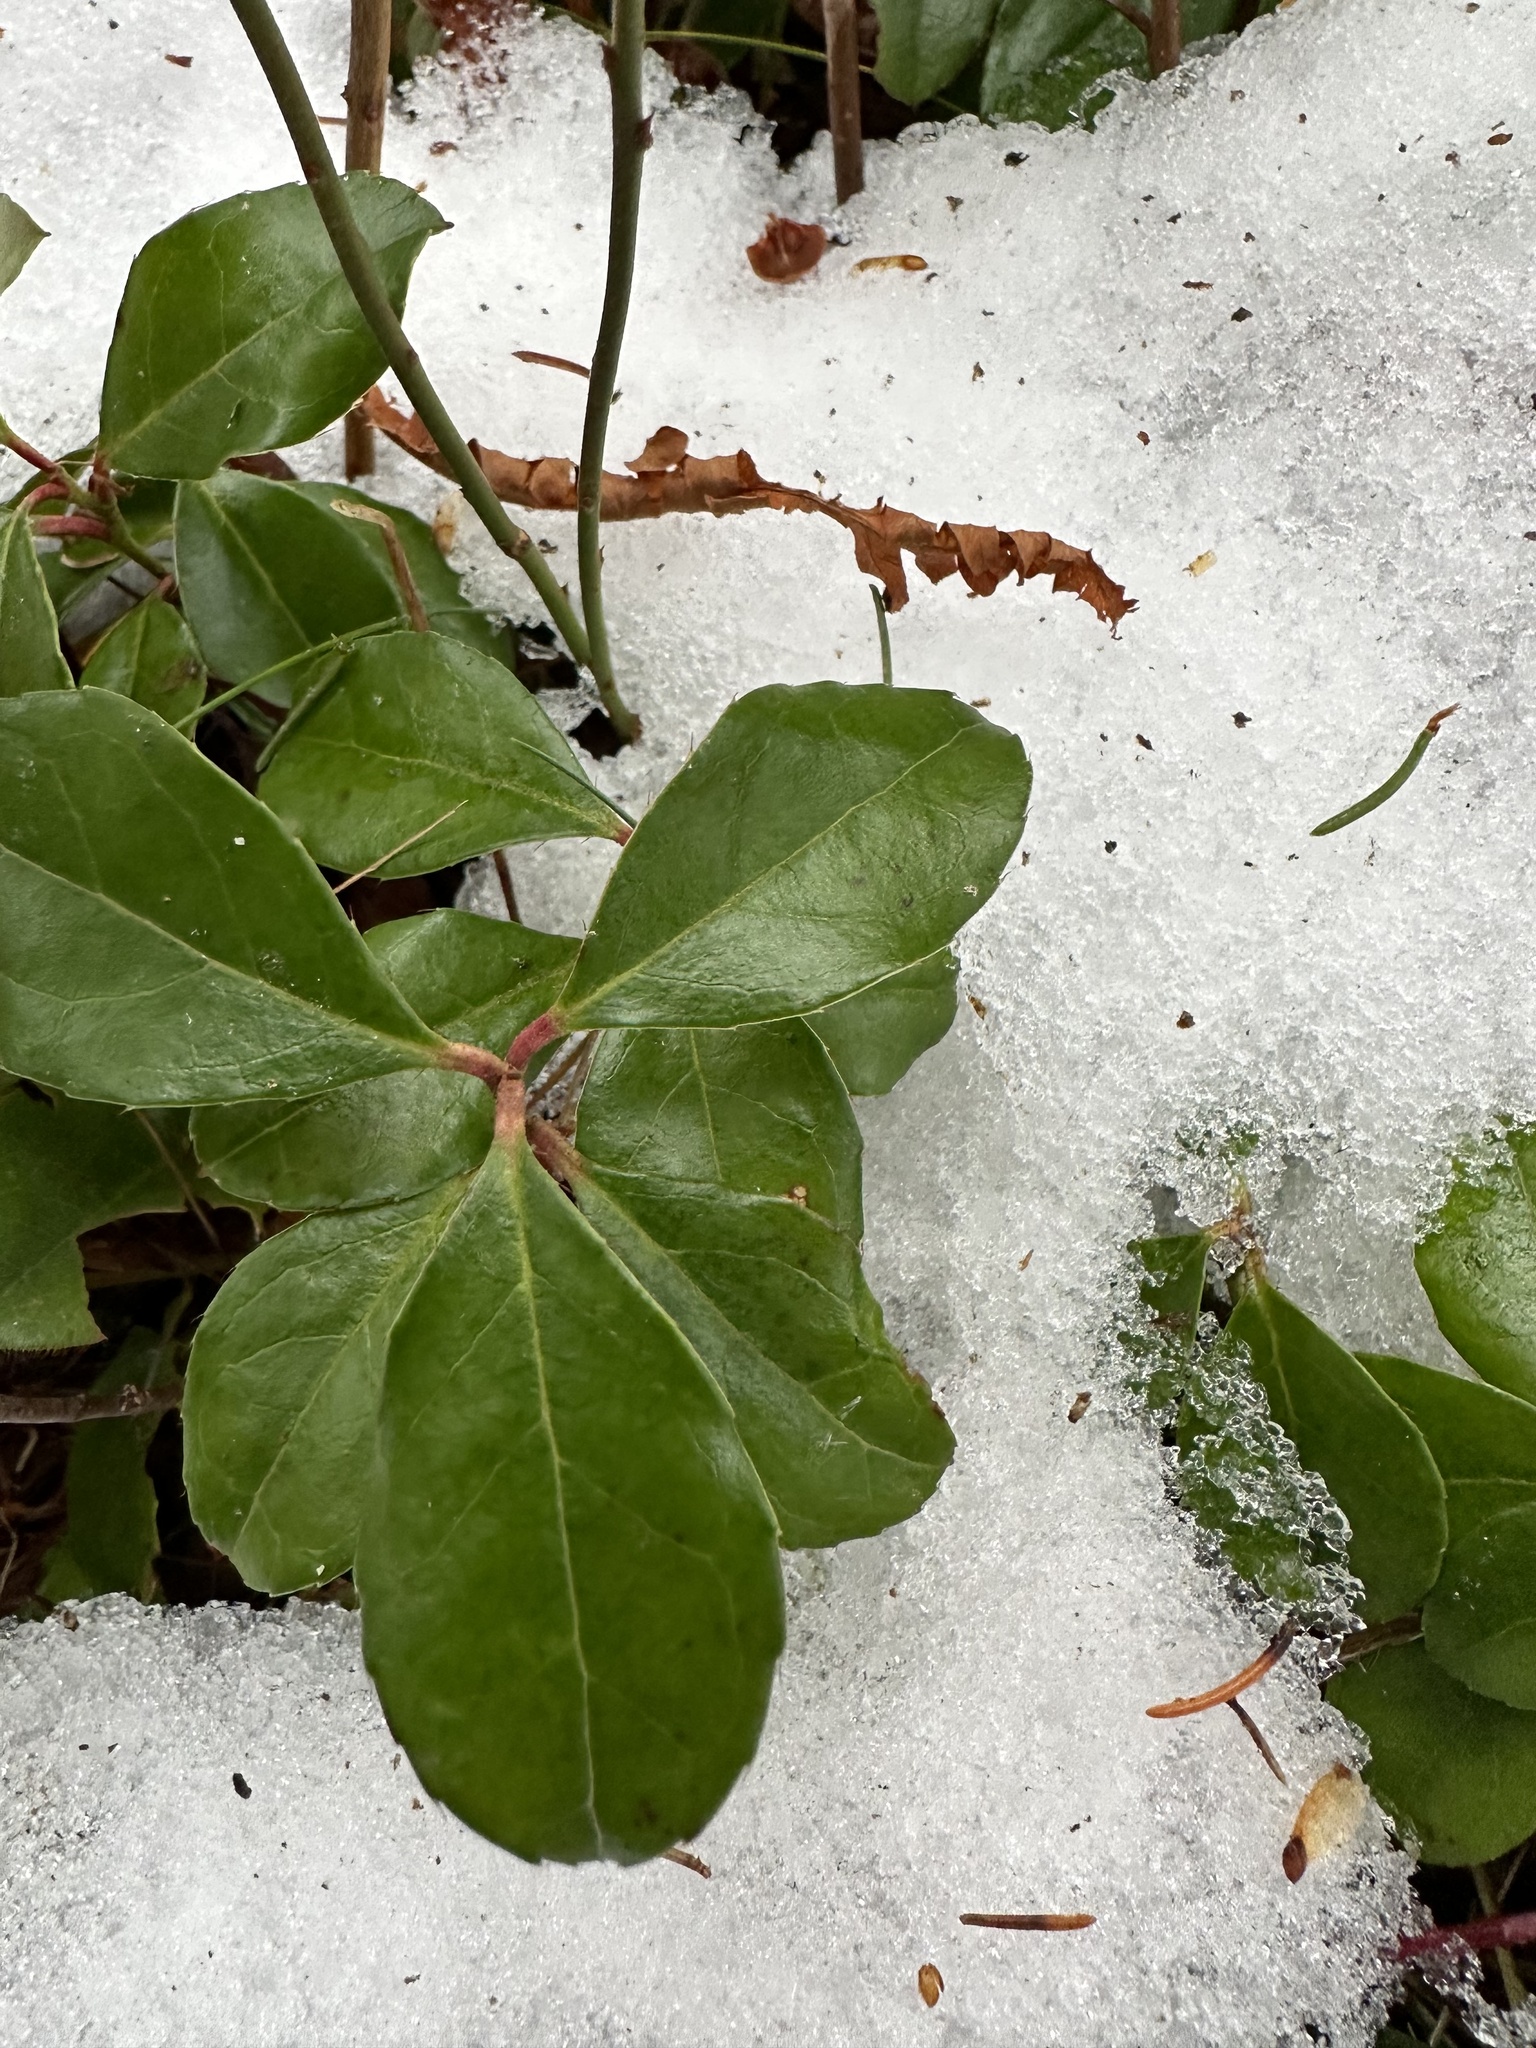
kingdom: Plantae
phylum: Tracheophyta
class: Magnoliopsida
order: Ericales
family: Ericaceae
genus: Gaultheria
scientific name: Gaultheria procumbens
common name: Checkerberry
